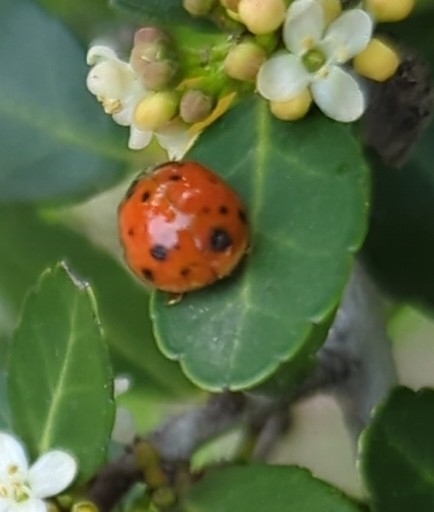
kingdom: Animalia
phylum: Arthropoda
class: Insecta
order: Coleoptera
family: Coccinellidae
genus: Harmonia
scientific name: Harmonia axyridis
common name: Harlequin ladybird
